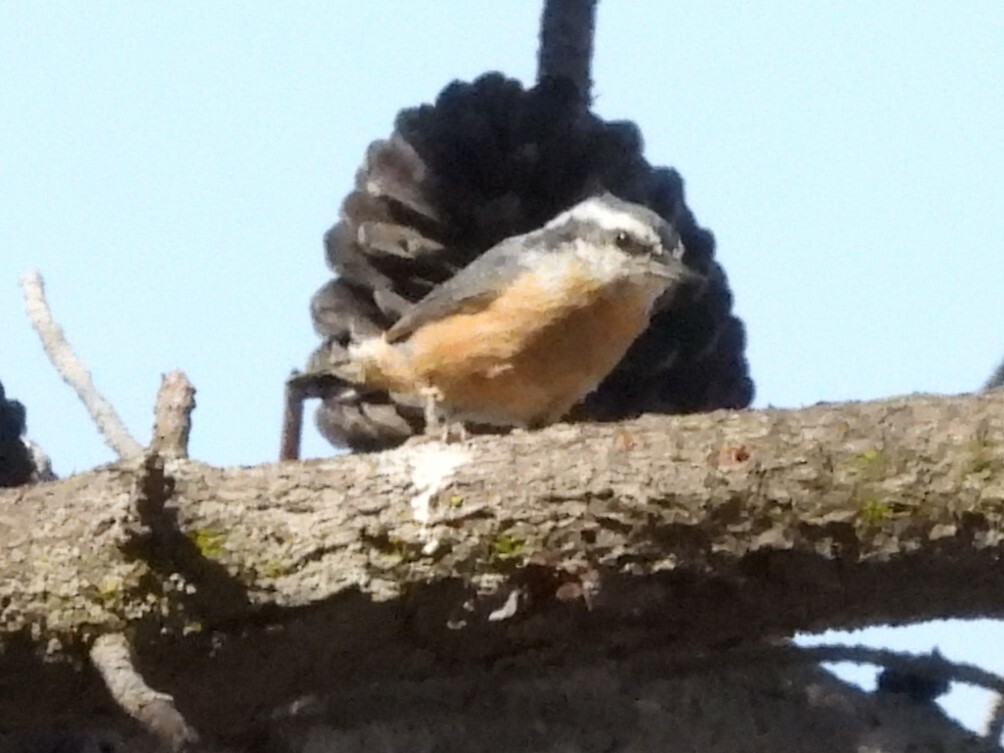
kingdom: Animalia
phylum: Chordata
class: Aves
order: Passeriformes
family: Sittidae
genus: Sitta
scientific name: Sitta canadensis
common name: Red-breasted nuthatch
